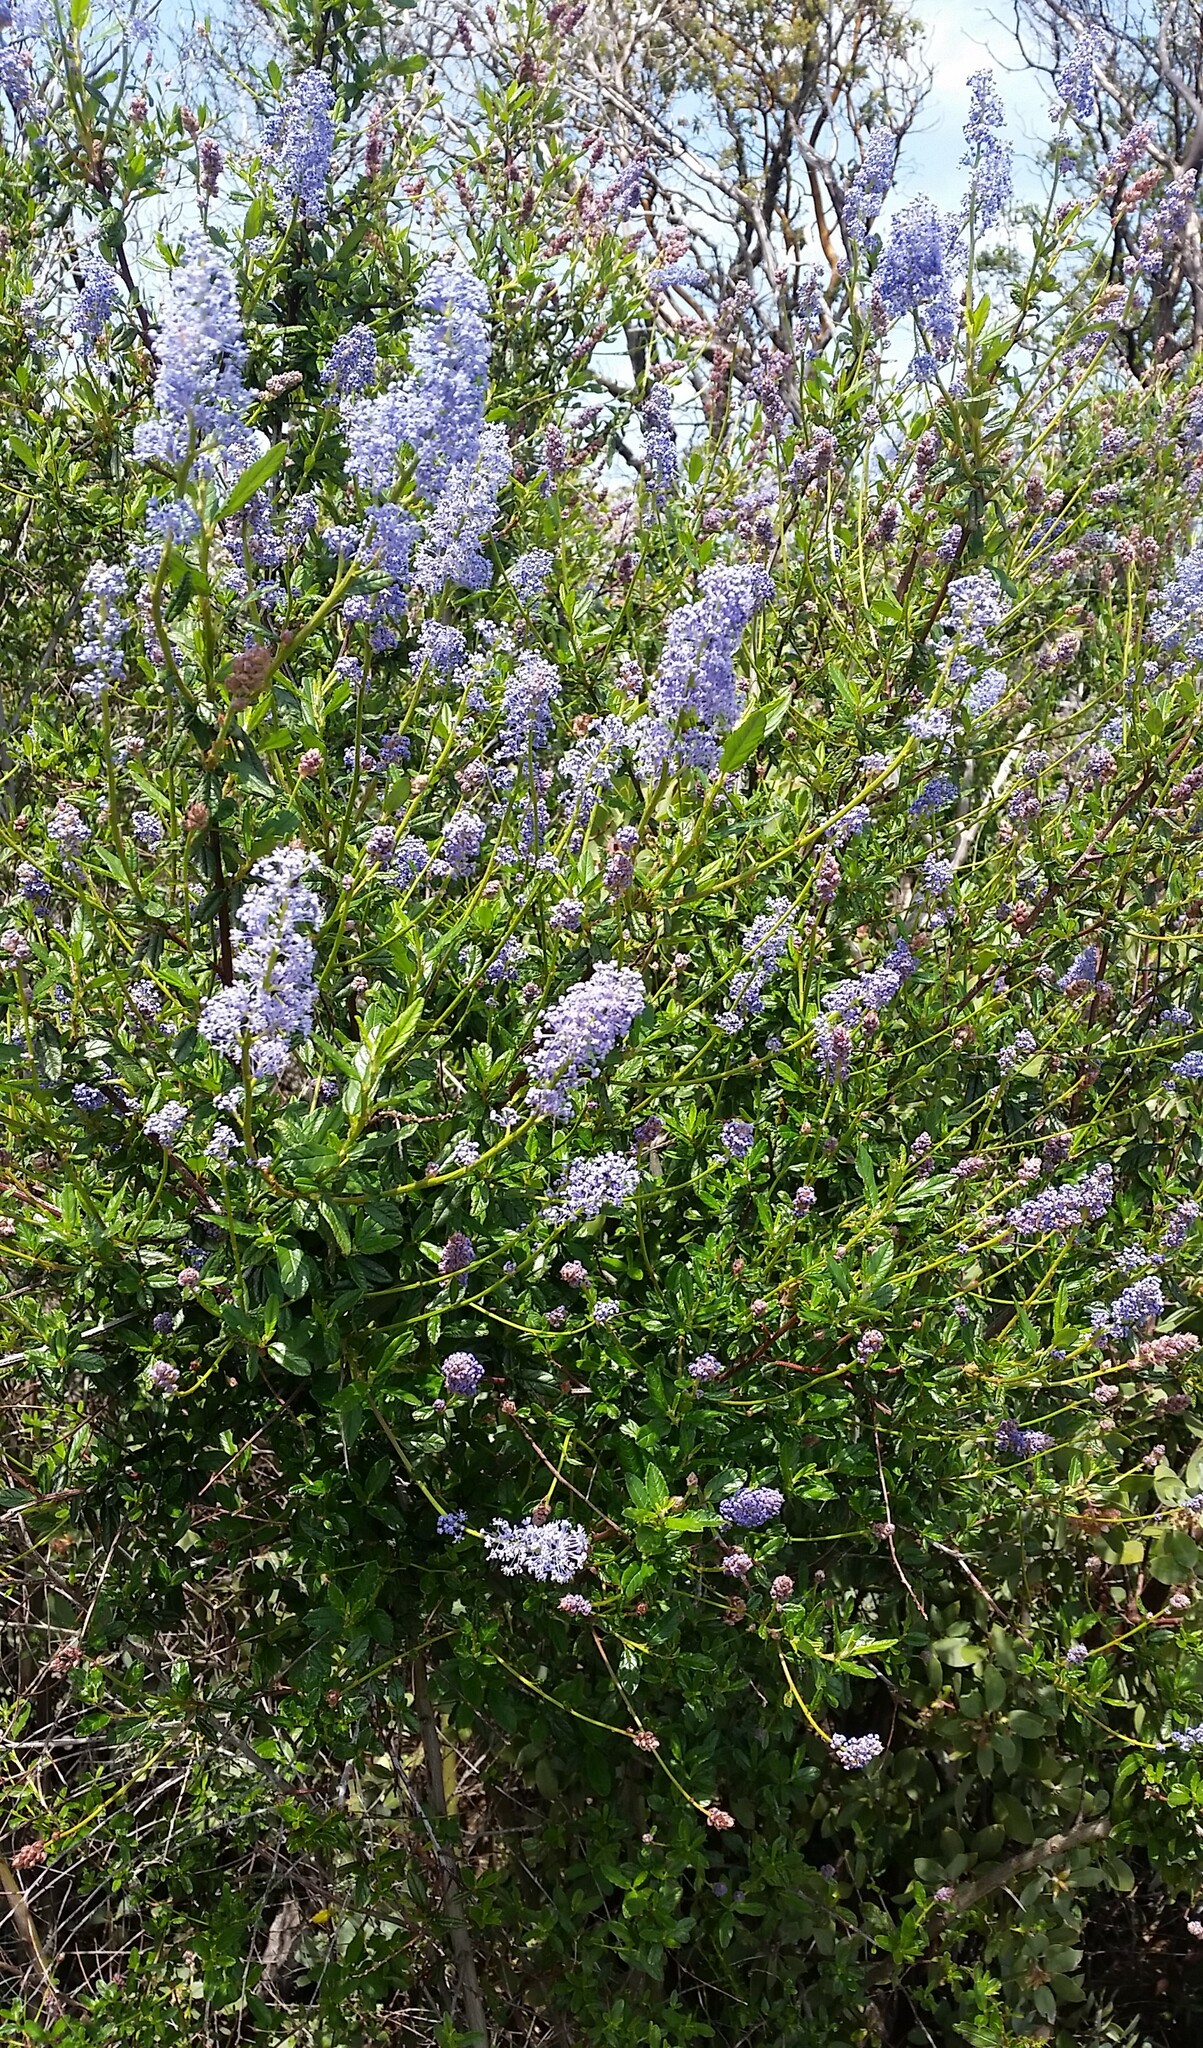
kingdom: Plantae
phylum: Tracheophyta
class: Magnoliopsida
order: Rosales
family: Rhamnaceae
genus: Ceanothus
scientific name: Ceanothus parryi
